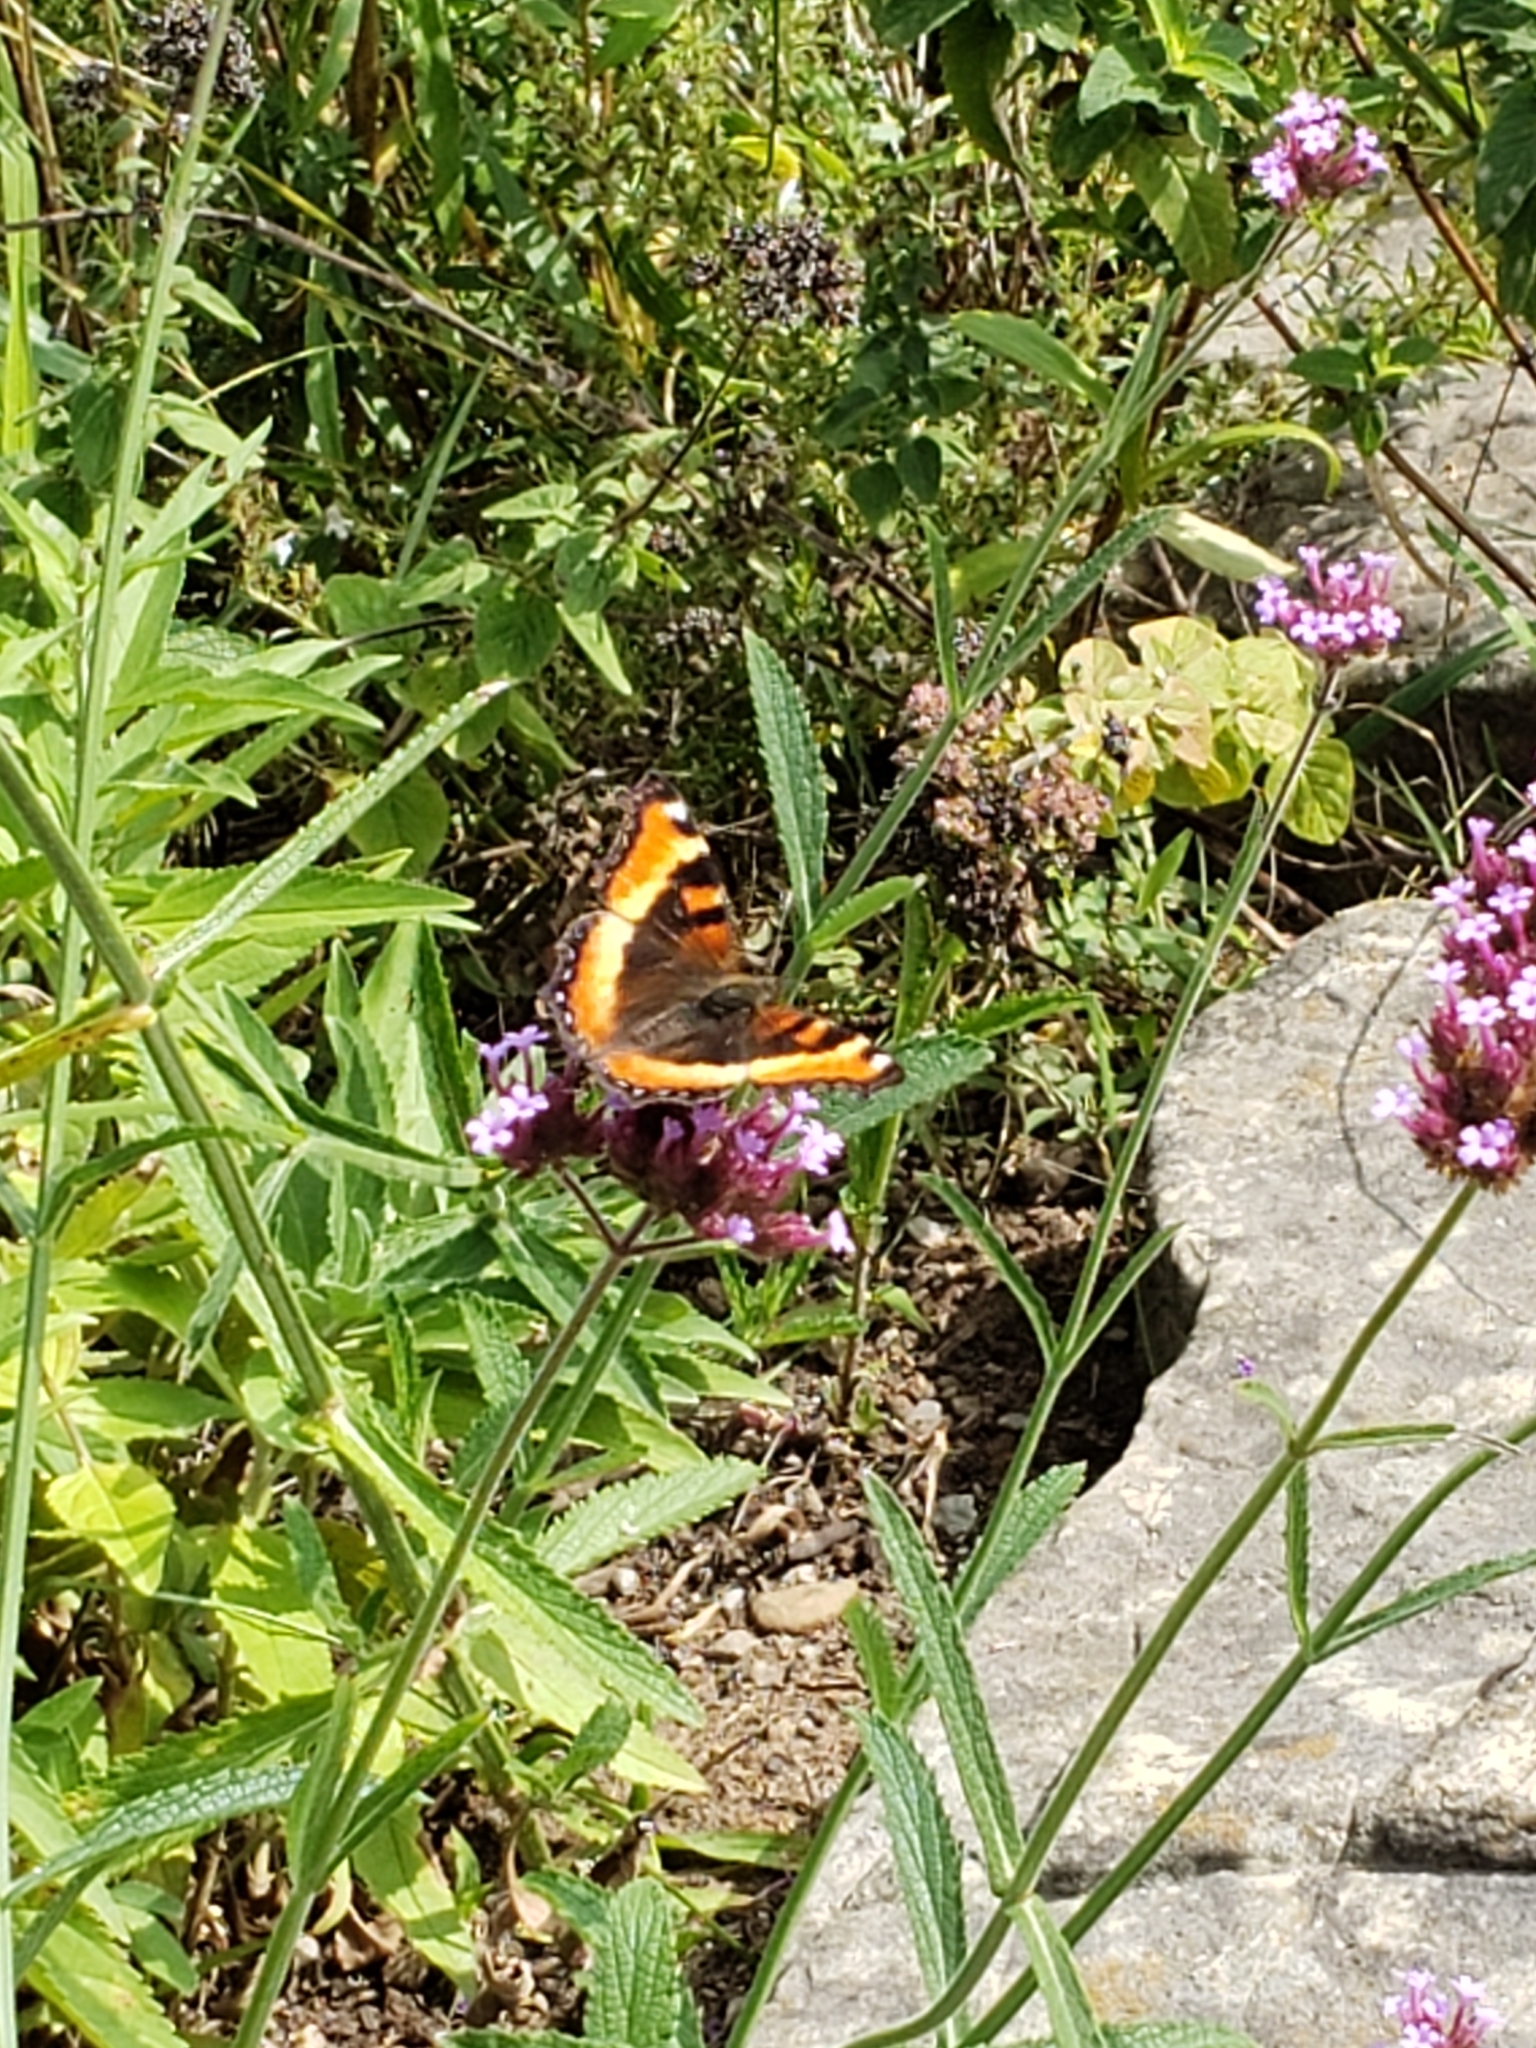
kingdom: Animalia
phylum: Arthropoda
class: Insecta
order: Lepidoptera
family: Nymphalidae
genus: Aglais
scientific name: Aglais milberti
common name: Milbert's tortoiseshell
